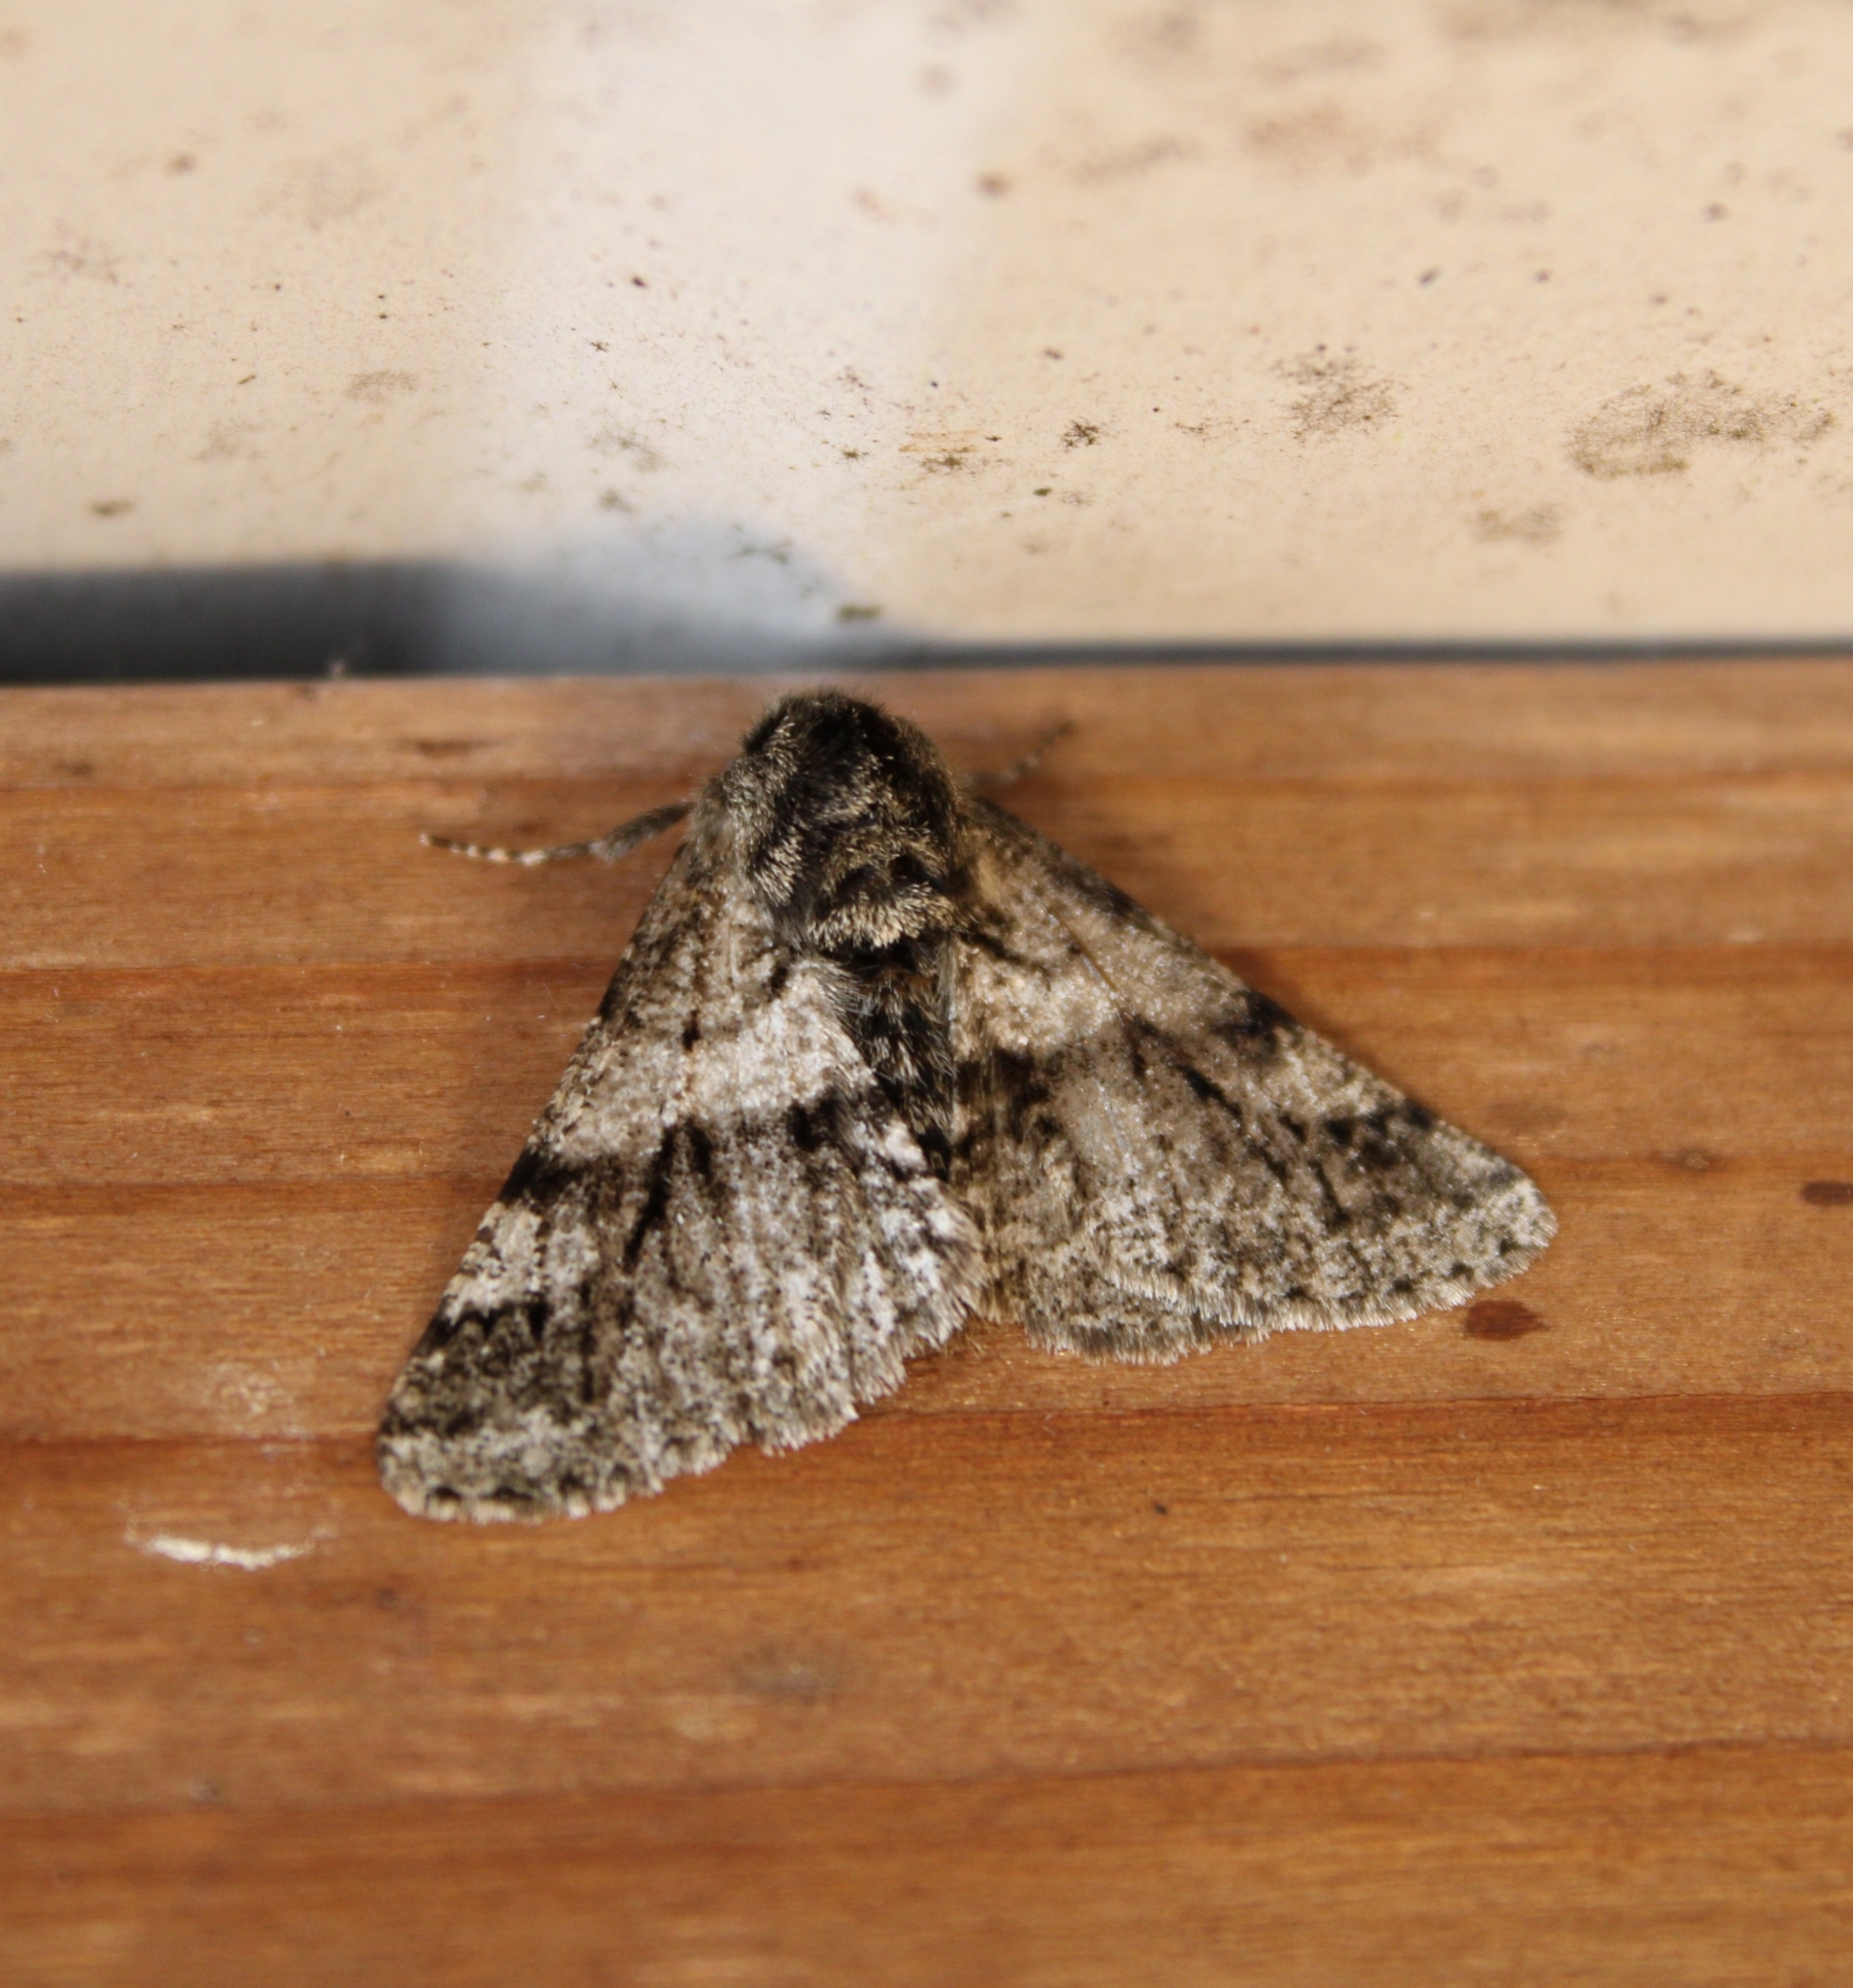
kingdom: Animalia
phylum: Arthropoda
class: Insecta
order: Lepidoptera
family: Geometridae
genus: Lycia
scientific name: Lycia ypsilon
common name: Wooly gray
